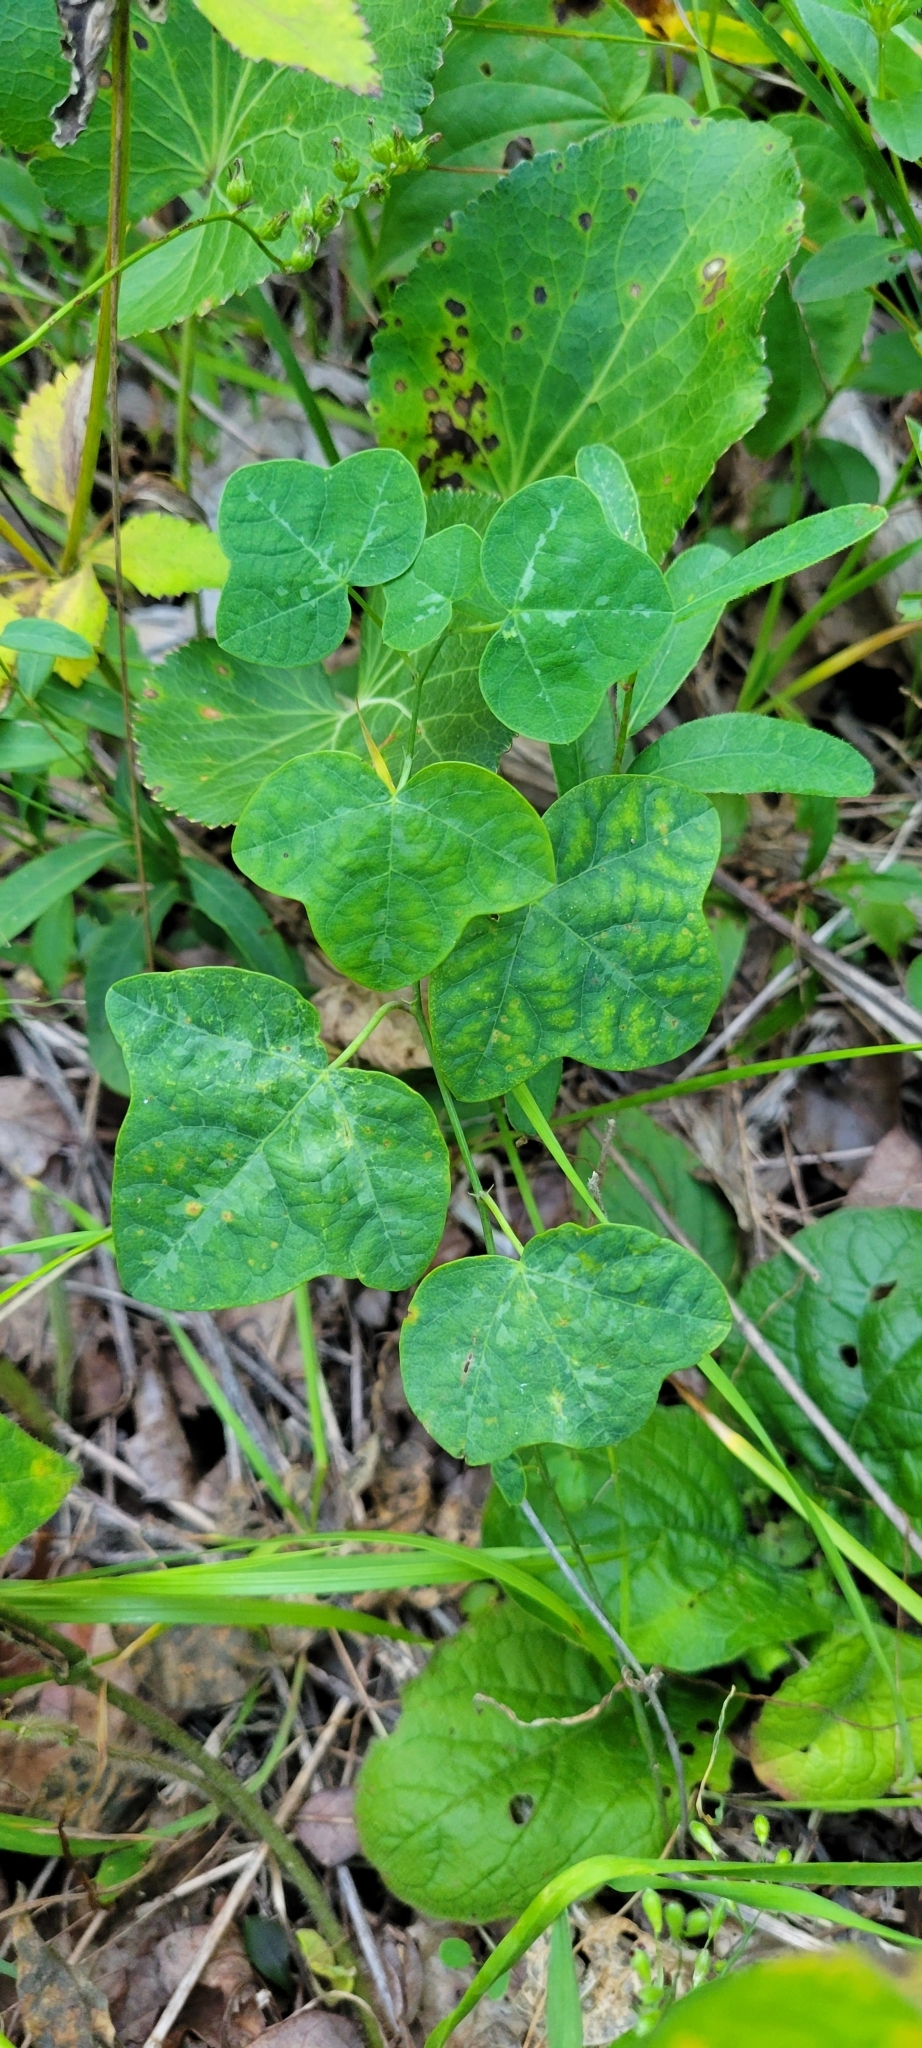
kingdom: Plantae
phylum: Tracheophyta
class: Magnoliopsida
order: Malpighiales
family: Passifloraceae
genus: Passiflora
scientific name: Passiflora lutea
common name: Yellow passionflower
